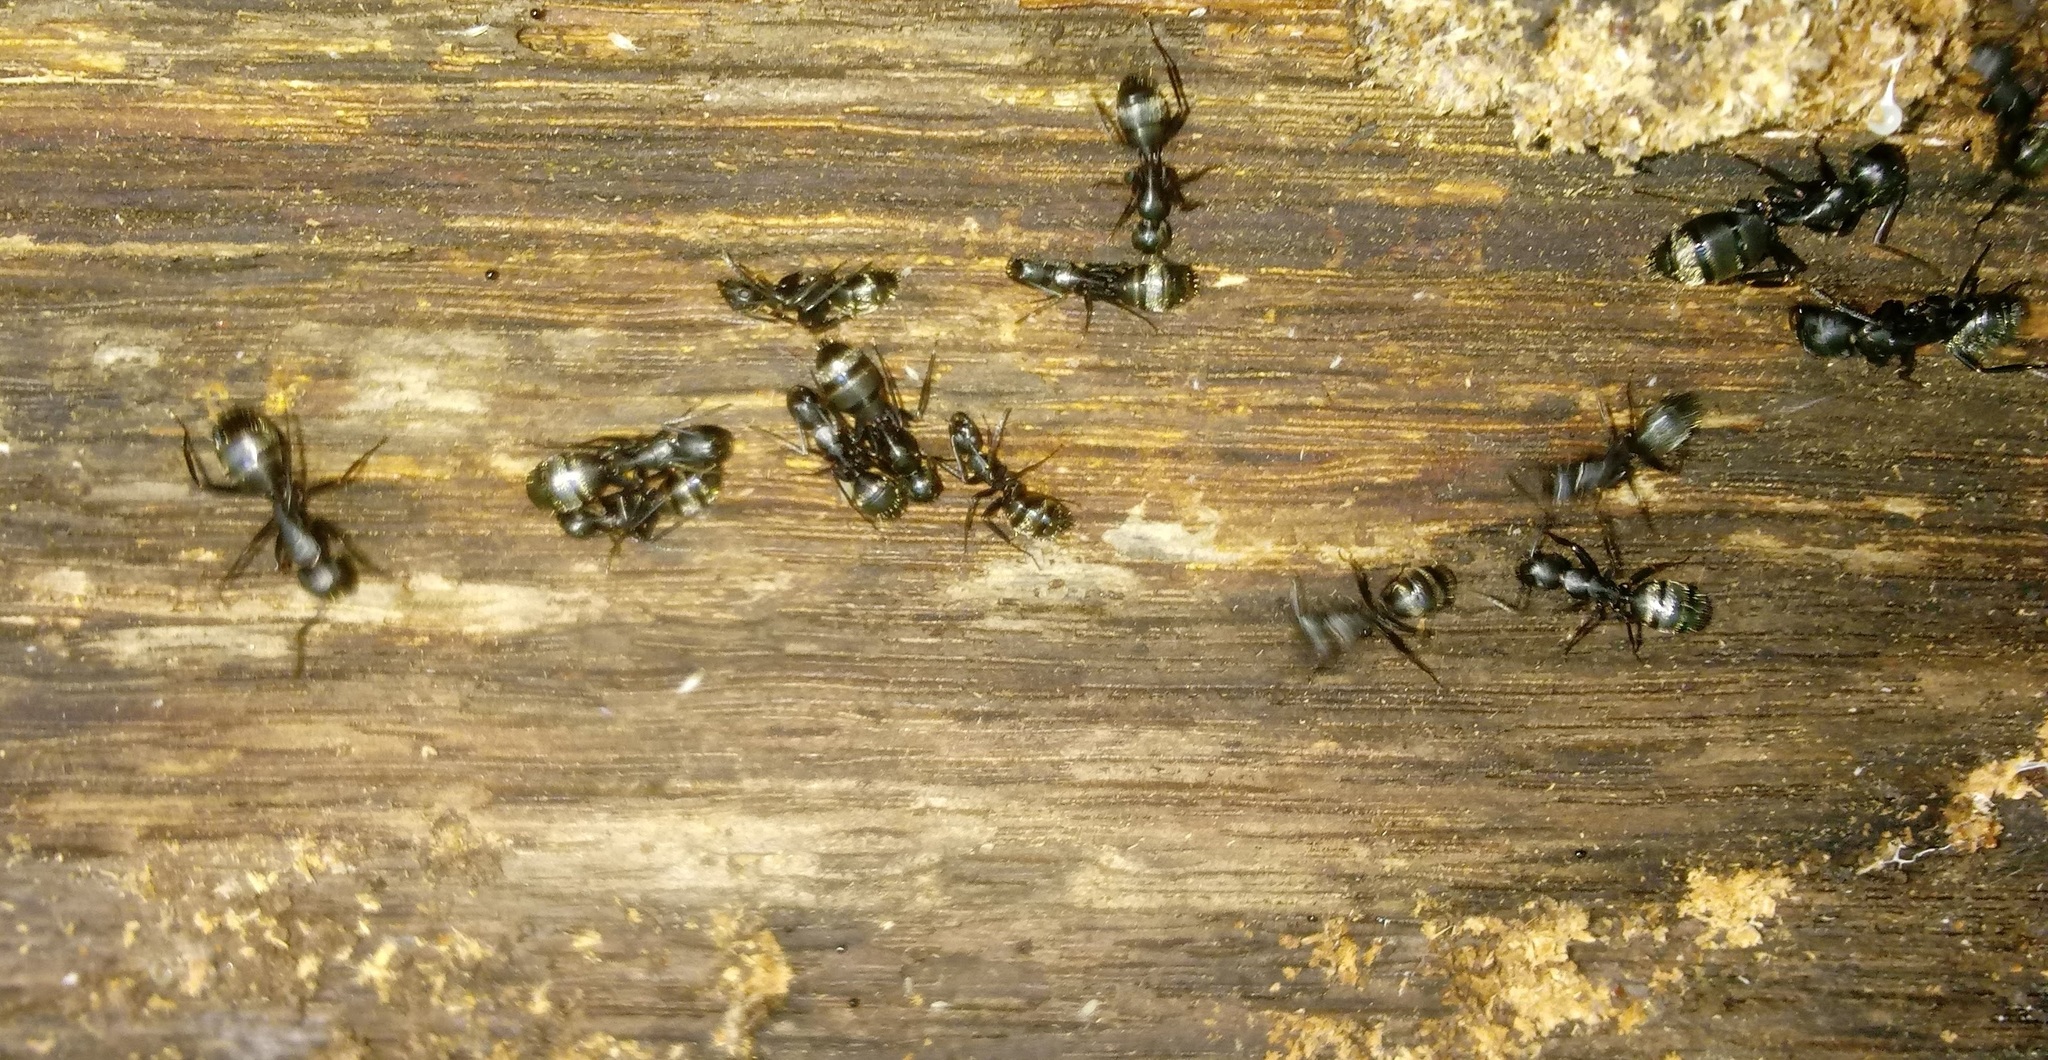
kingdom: Animalia
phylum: Arthropoda
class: Insecta
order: Hymenoptera
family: Formicidae
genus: Camponotus
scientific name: Camponotus pennsylvanicus
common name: Black carpenter ant
